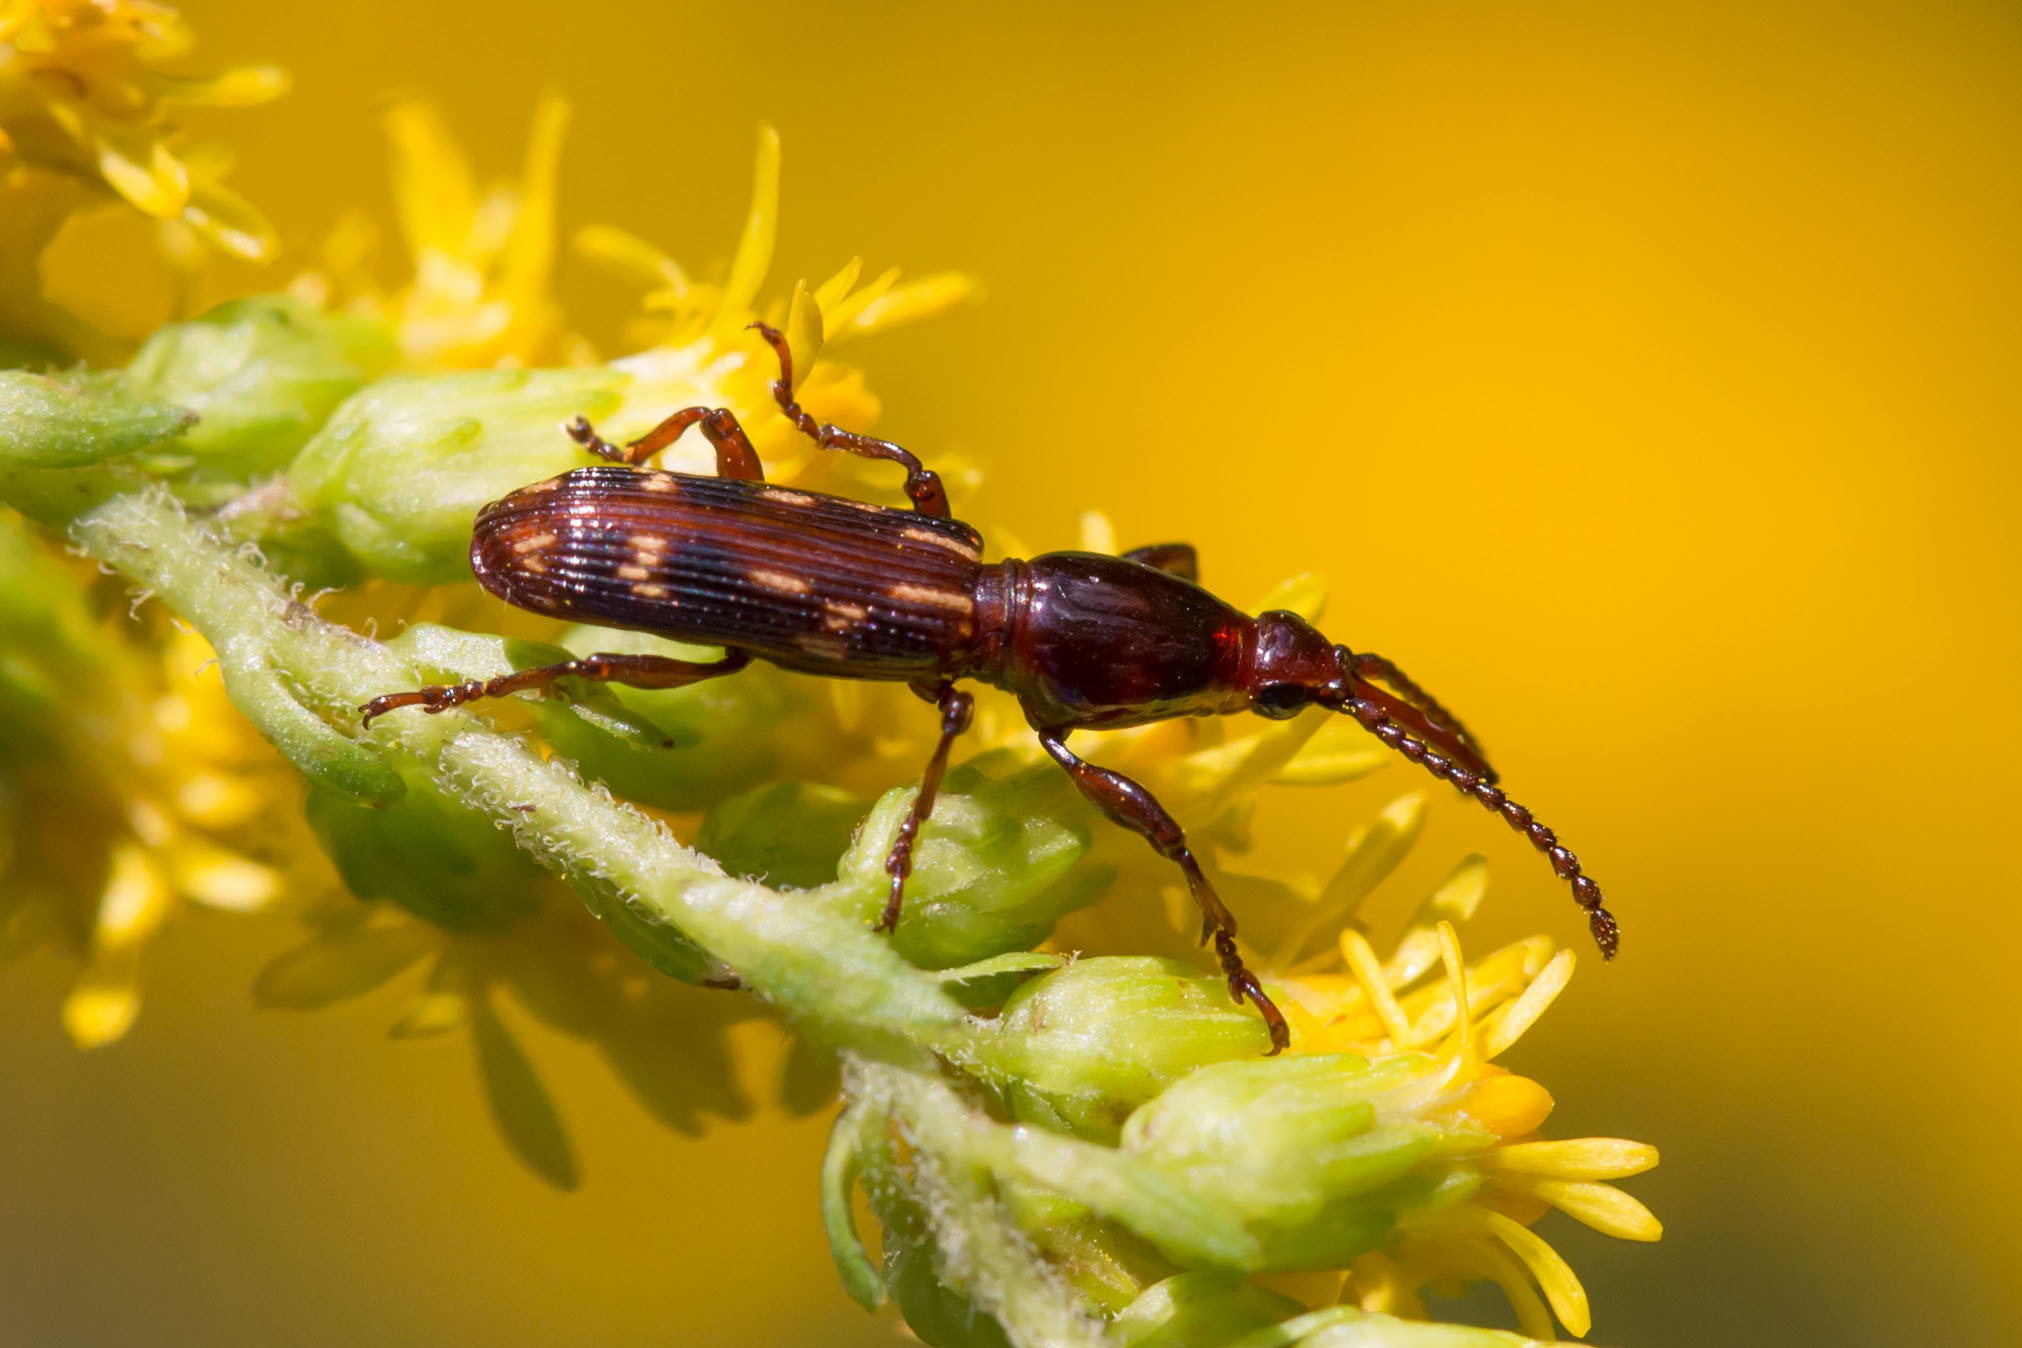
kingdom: Animalia
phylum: Arthropoda
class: Insecta
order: Coleoptera
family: Brentidae
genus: Arrenodes
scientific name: Arrenodes minutus
